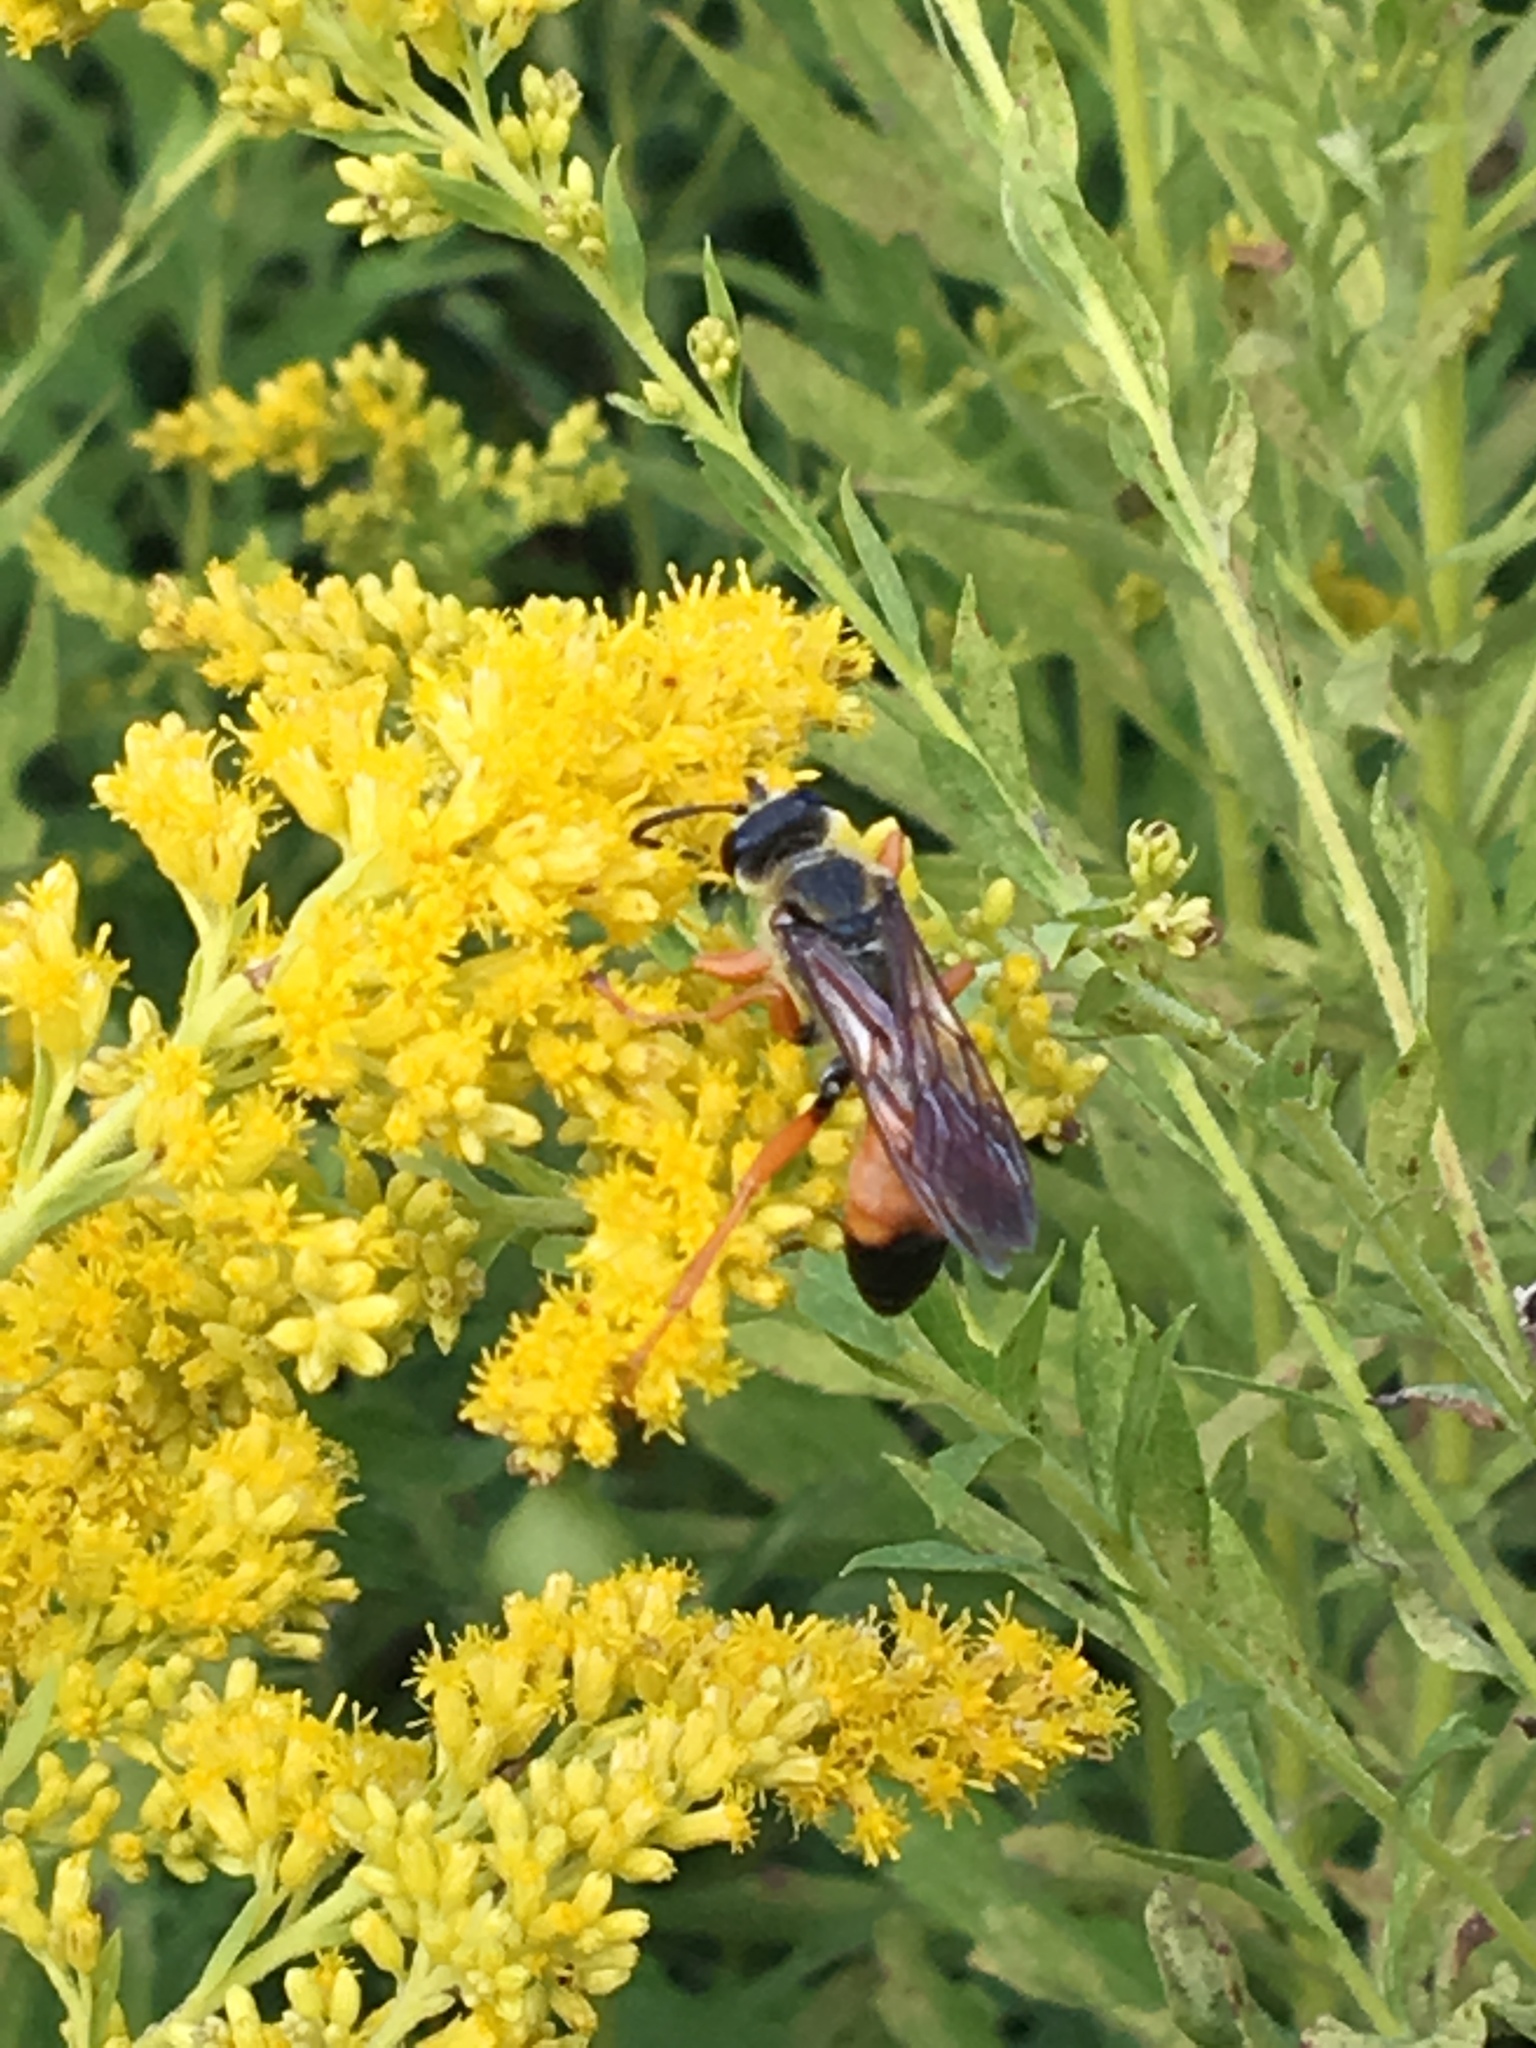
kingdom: Animalia
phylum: Arthropoda
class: Insecta
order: Hymenoptera
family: Sphecidae
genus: Sphex
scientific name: Sphex ichneumoneus
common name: Great golden digger wasp
